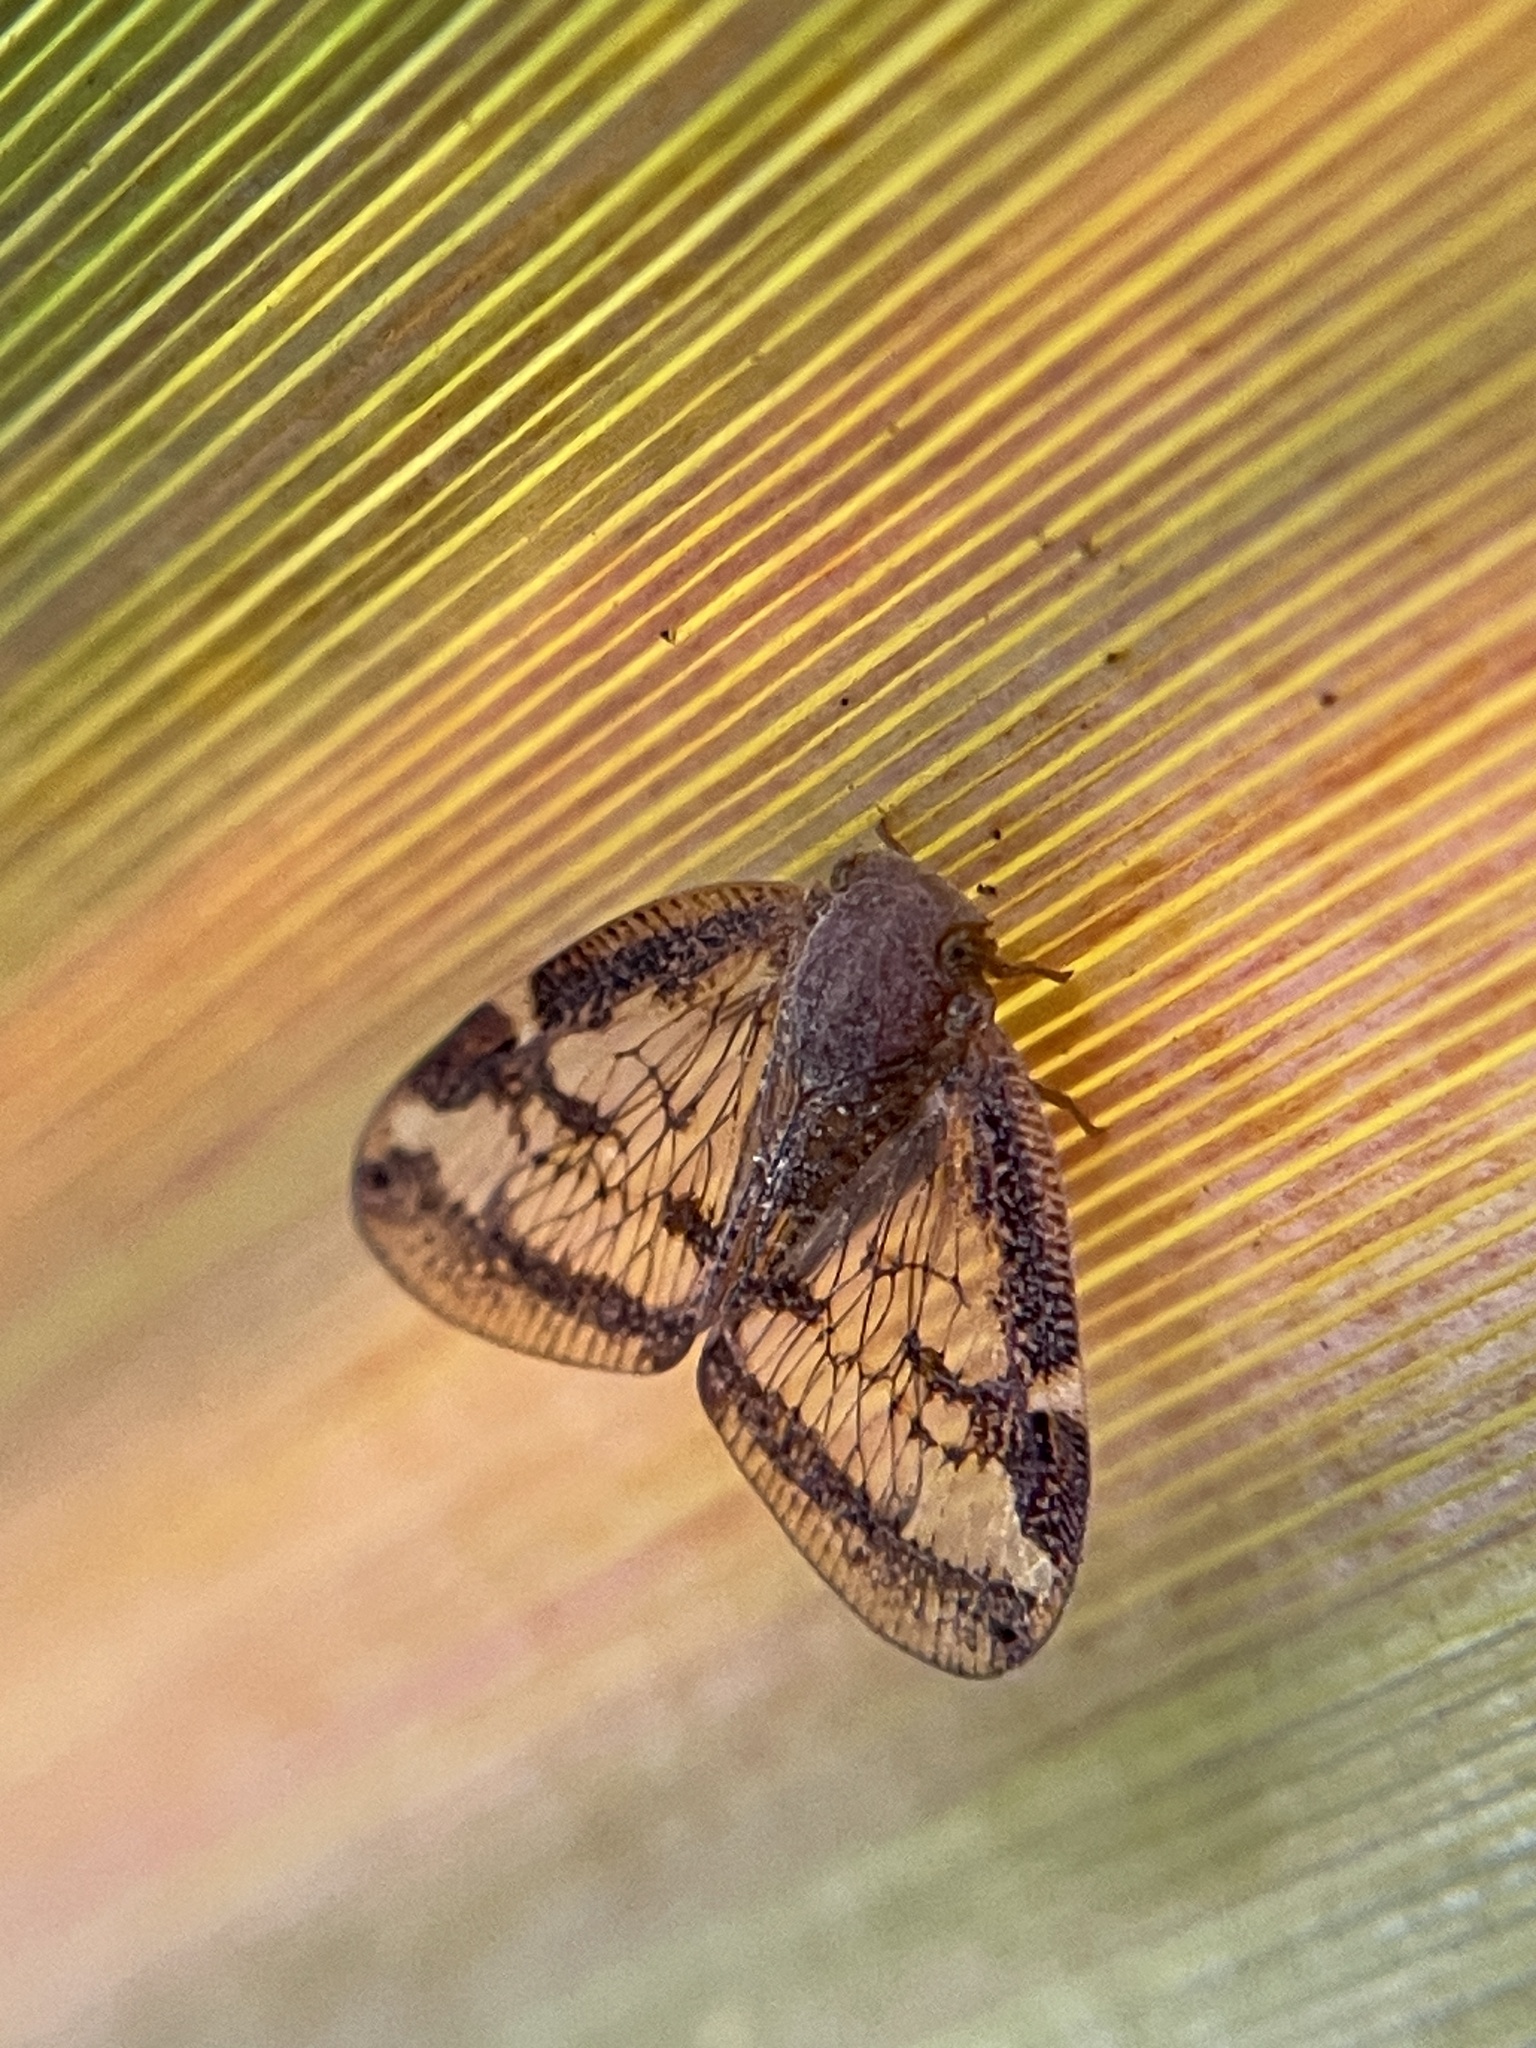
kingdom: Animalia
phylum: Arthropoda
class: Insecta
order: Hemiptera
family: Ricaniidae
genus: Scolypopa
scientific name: Scolypopa australis
